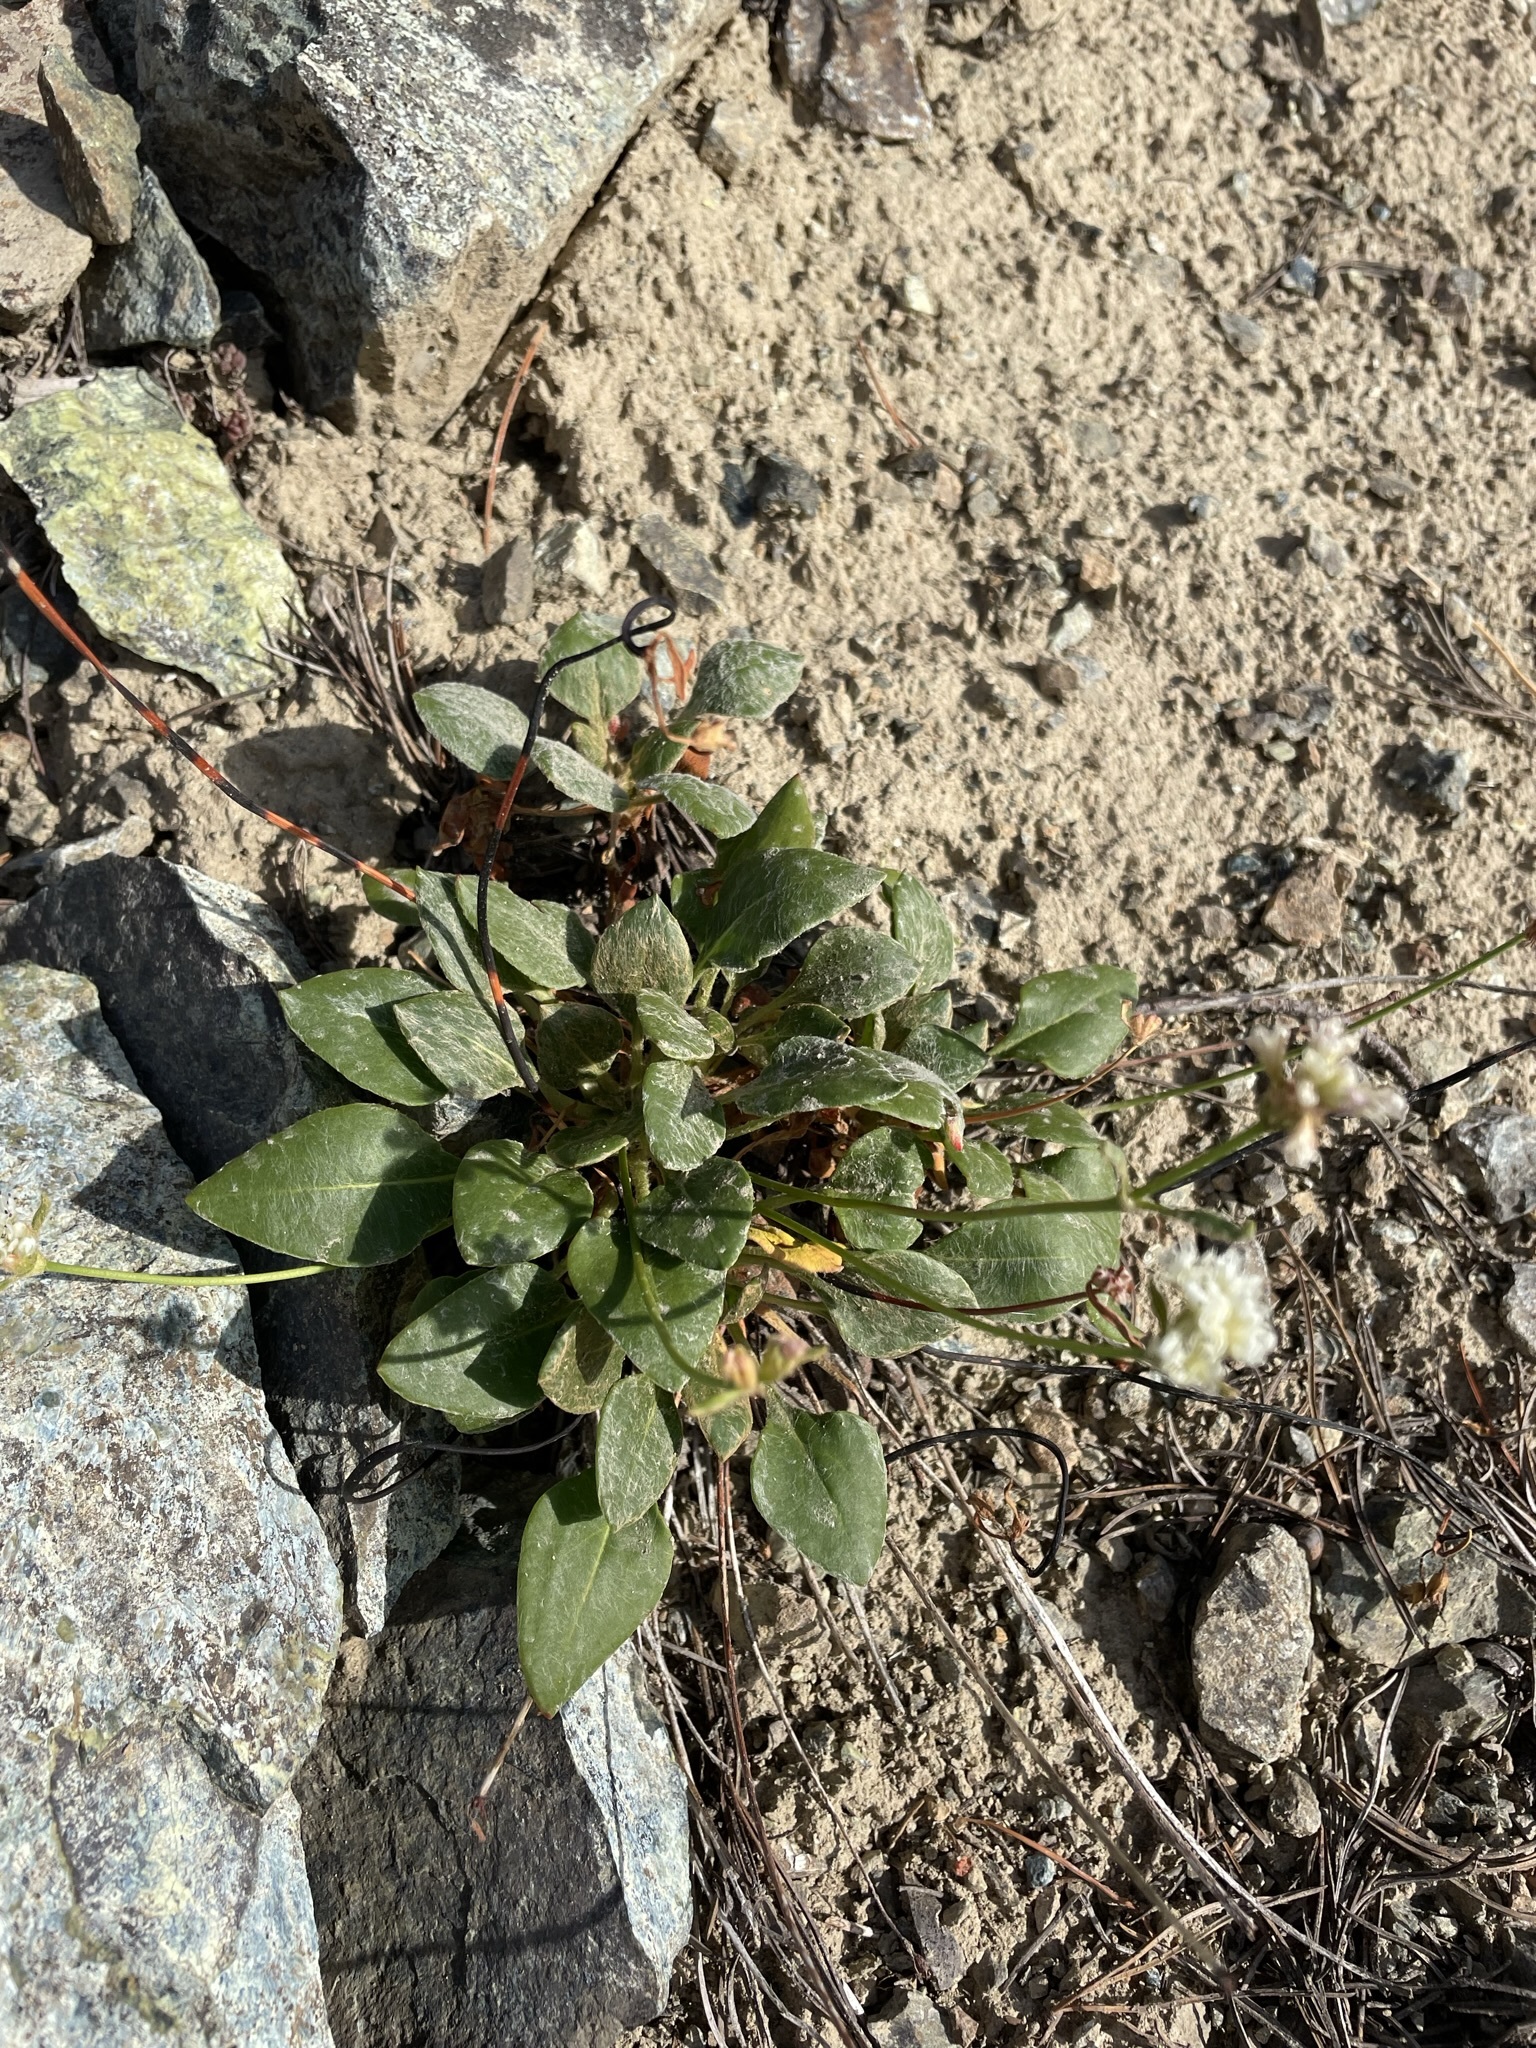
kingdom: Plantae
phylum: Tracheophyta
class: Magnoliopsida
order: Caryophyllales
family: Polygonaceae
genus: Eriogonum
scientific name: Eriogonum pyrolifolium
